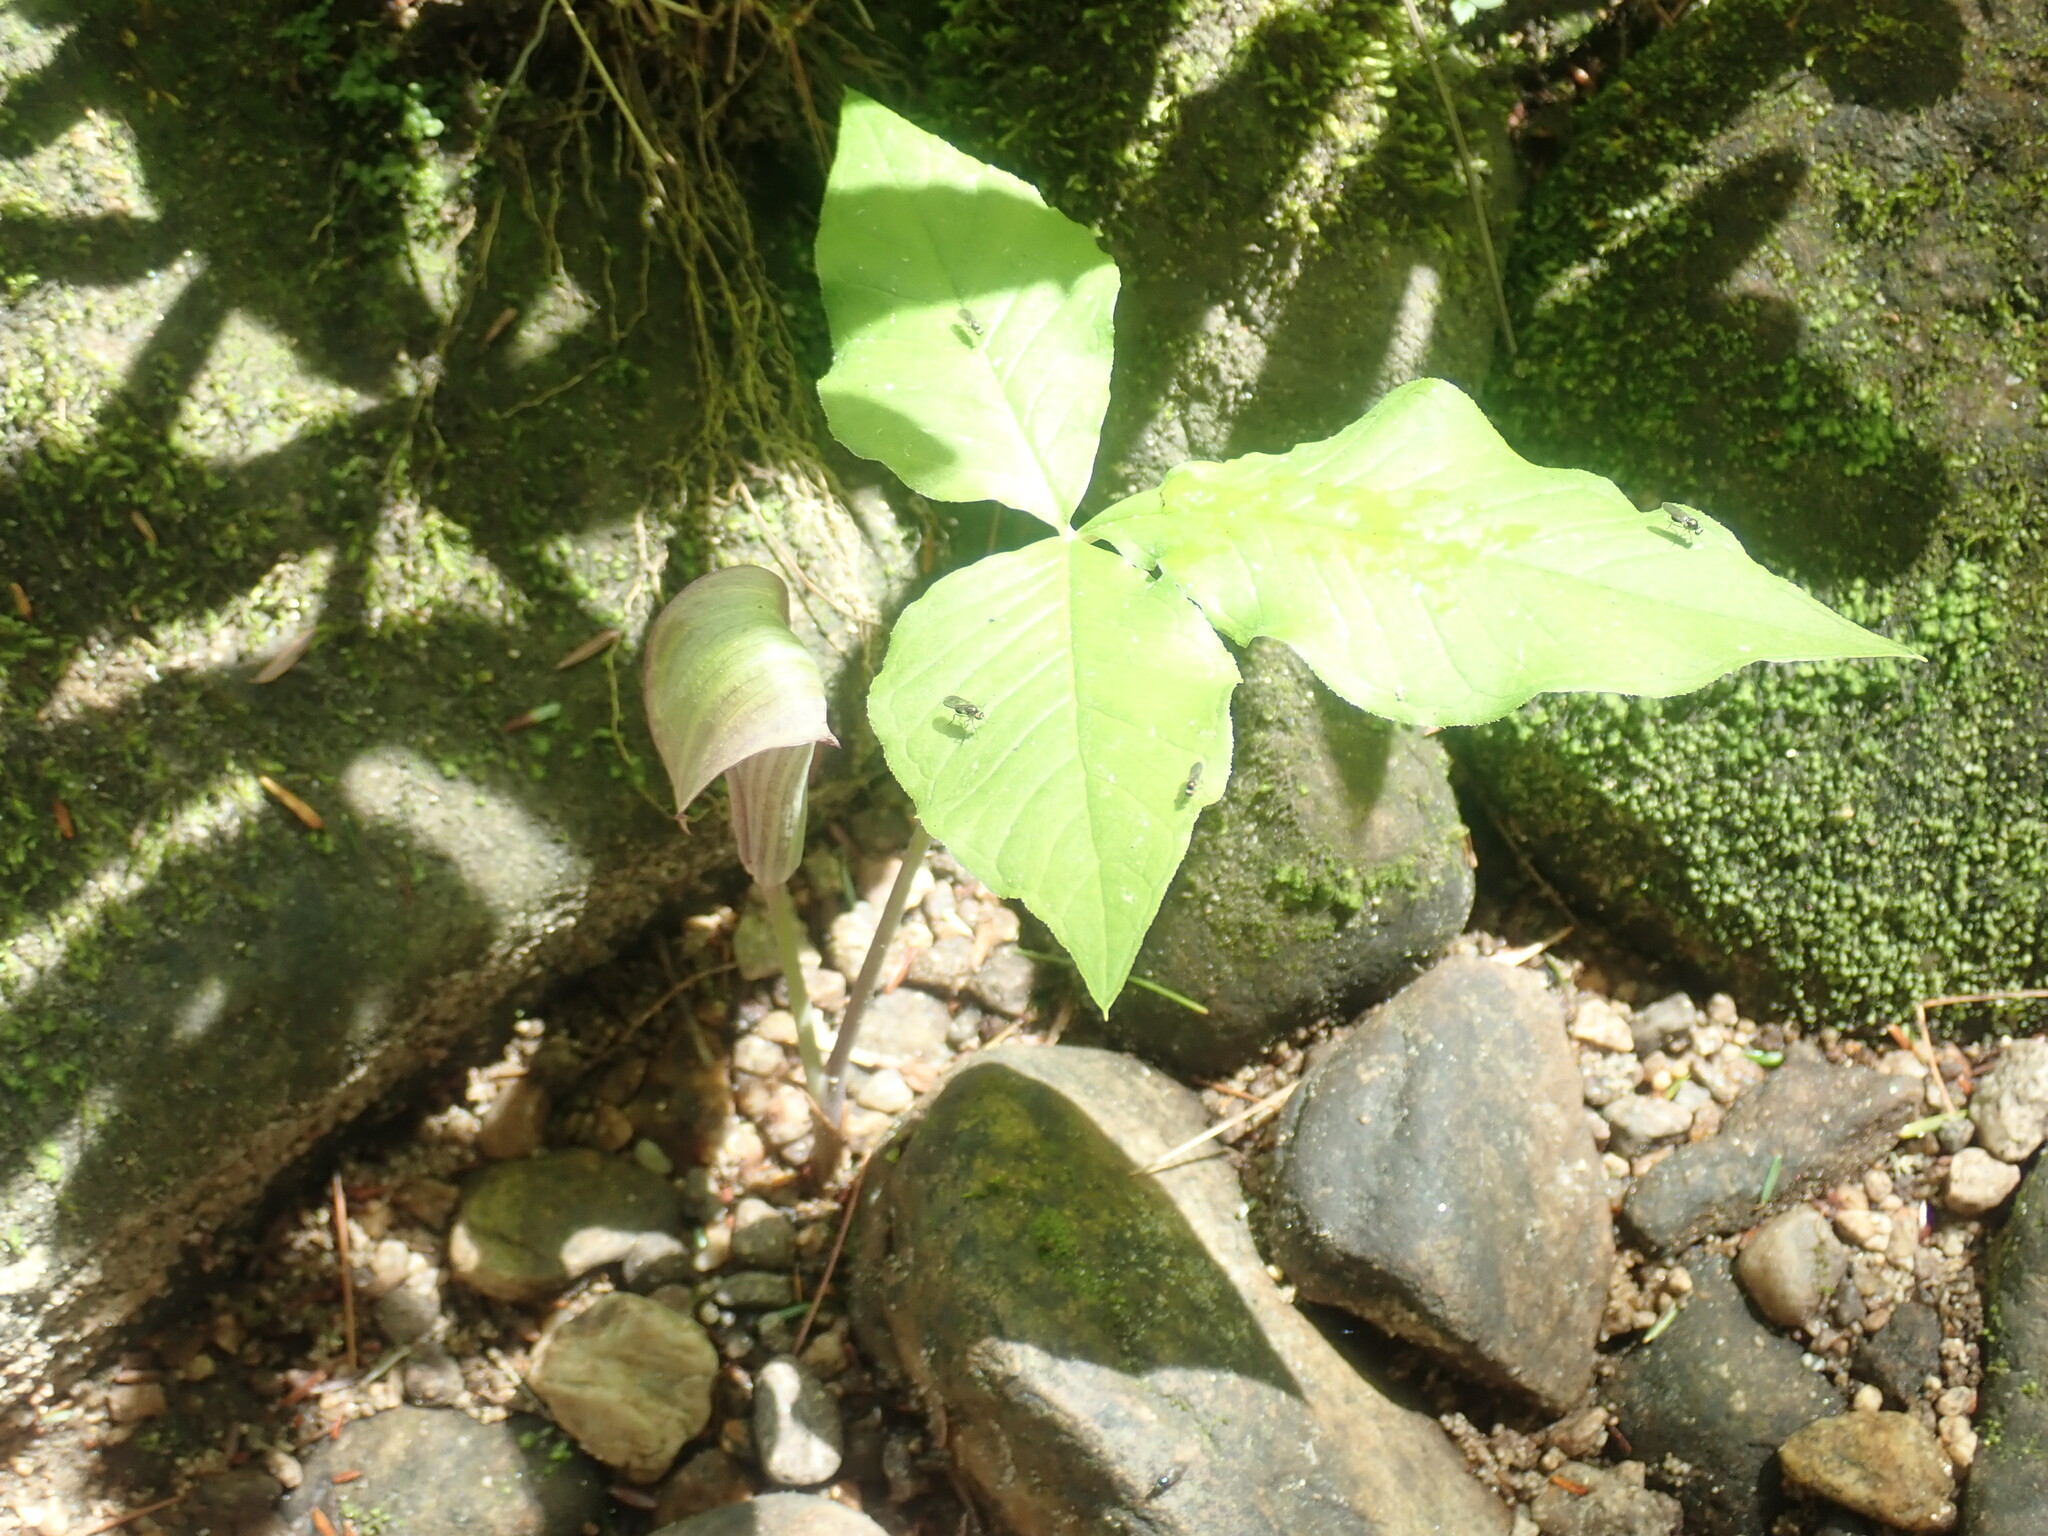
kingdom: Plantae
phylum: Tracheophyta
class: Liliopsida
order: Alismatales
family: Araceae
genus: Arisaema
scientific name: Arisaema triphyllum
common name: Jack-in-the-pulpit
